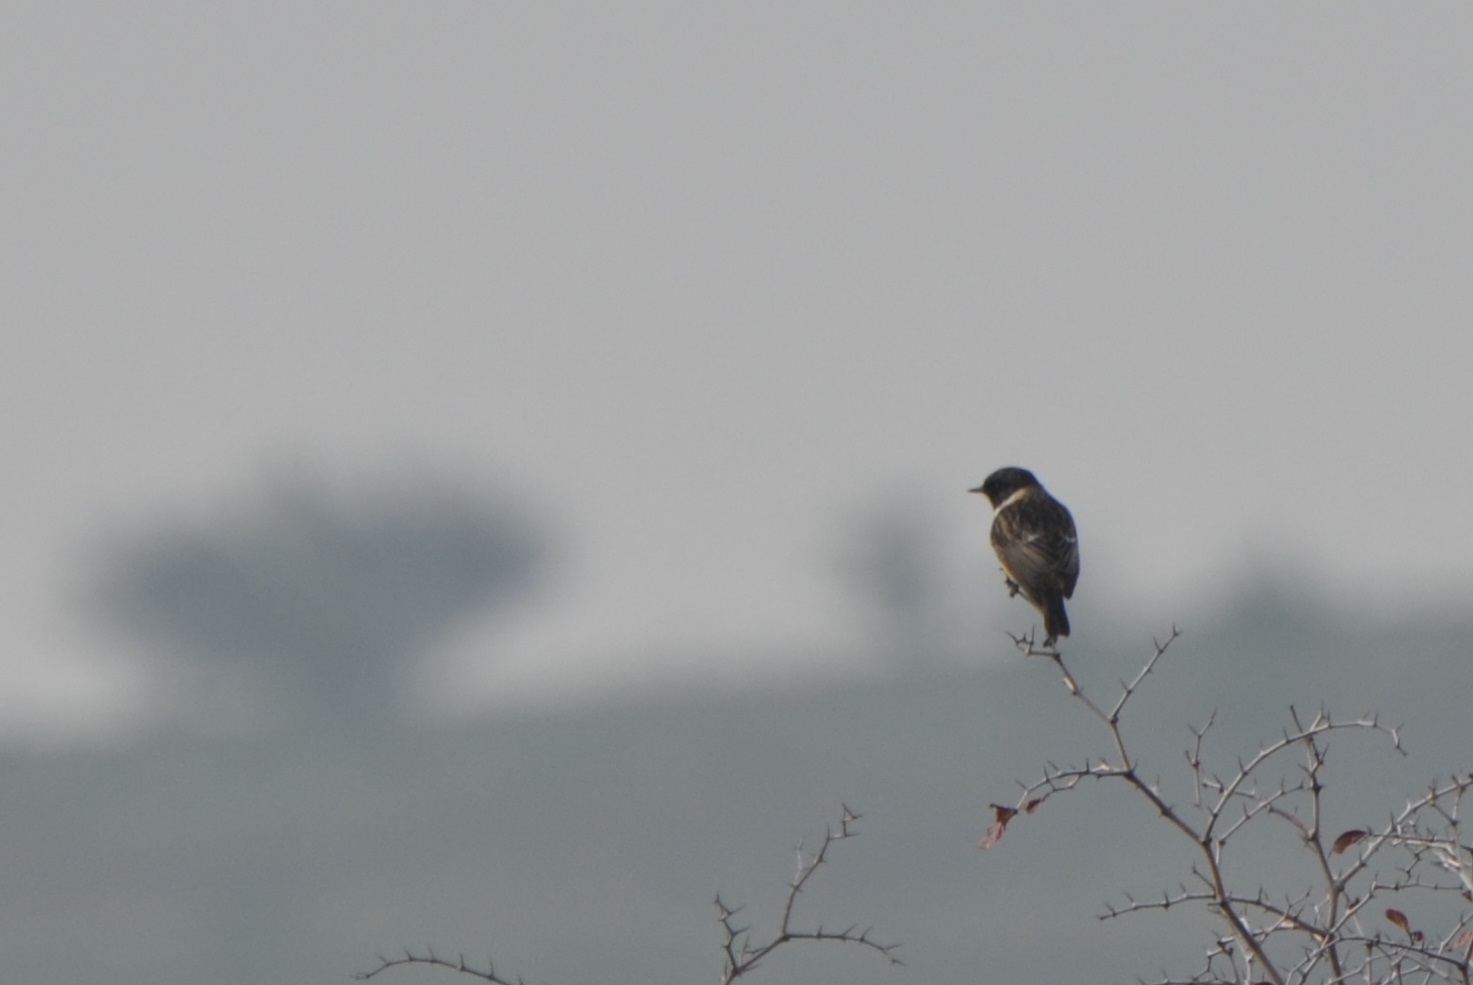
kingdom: Animalia
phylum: Chordata
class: Aves
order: Passeriformes
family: Muscicapidae
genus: Saxicola
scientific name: Saxicola rubicola
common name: European stonechat
